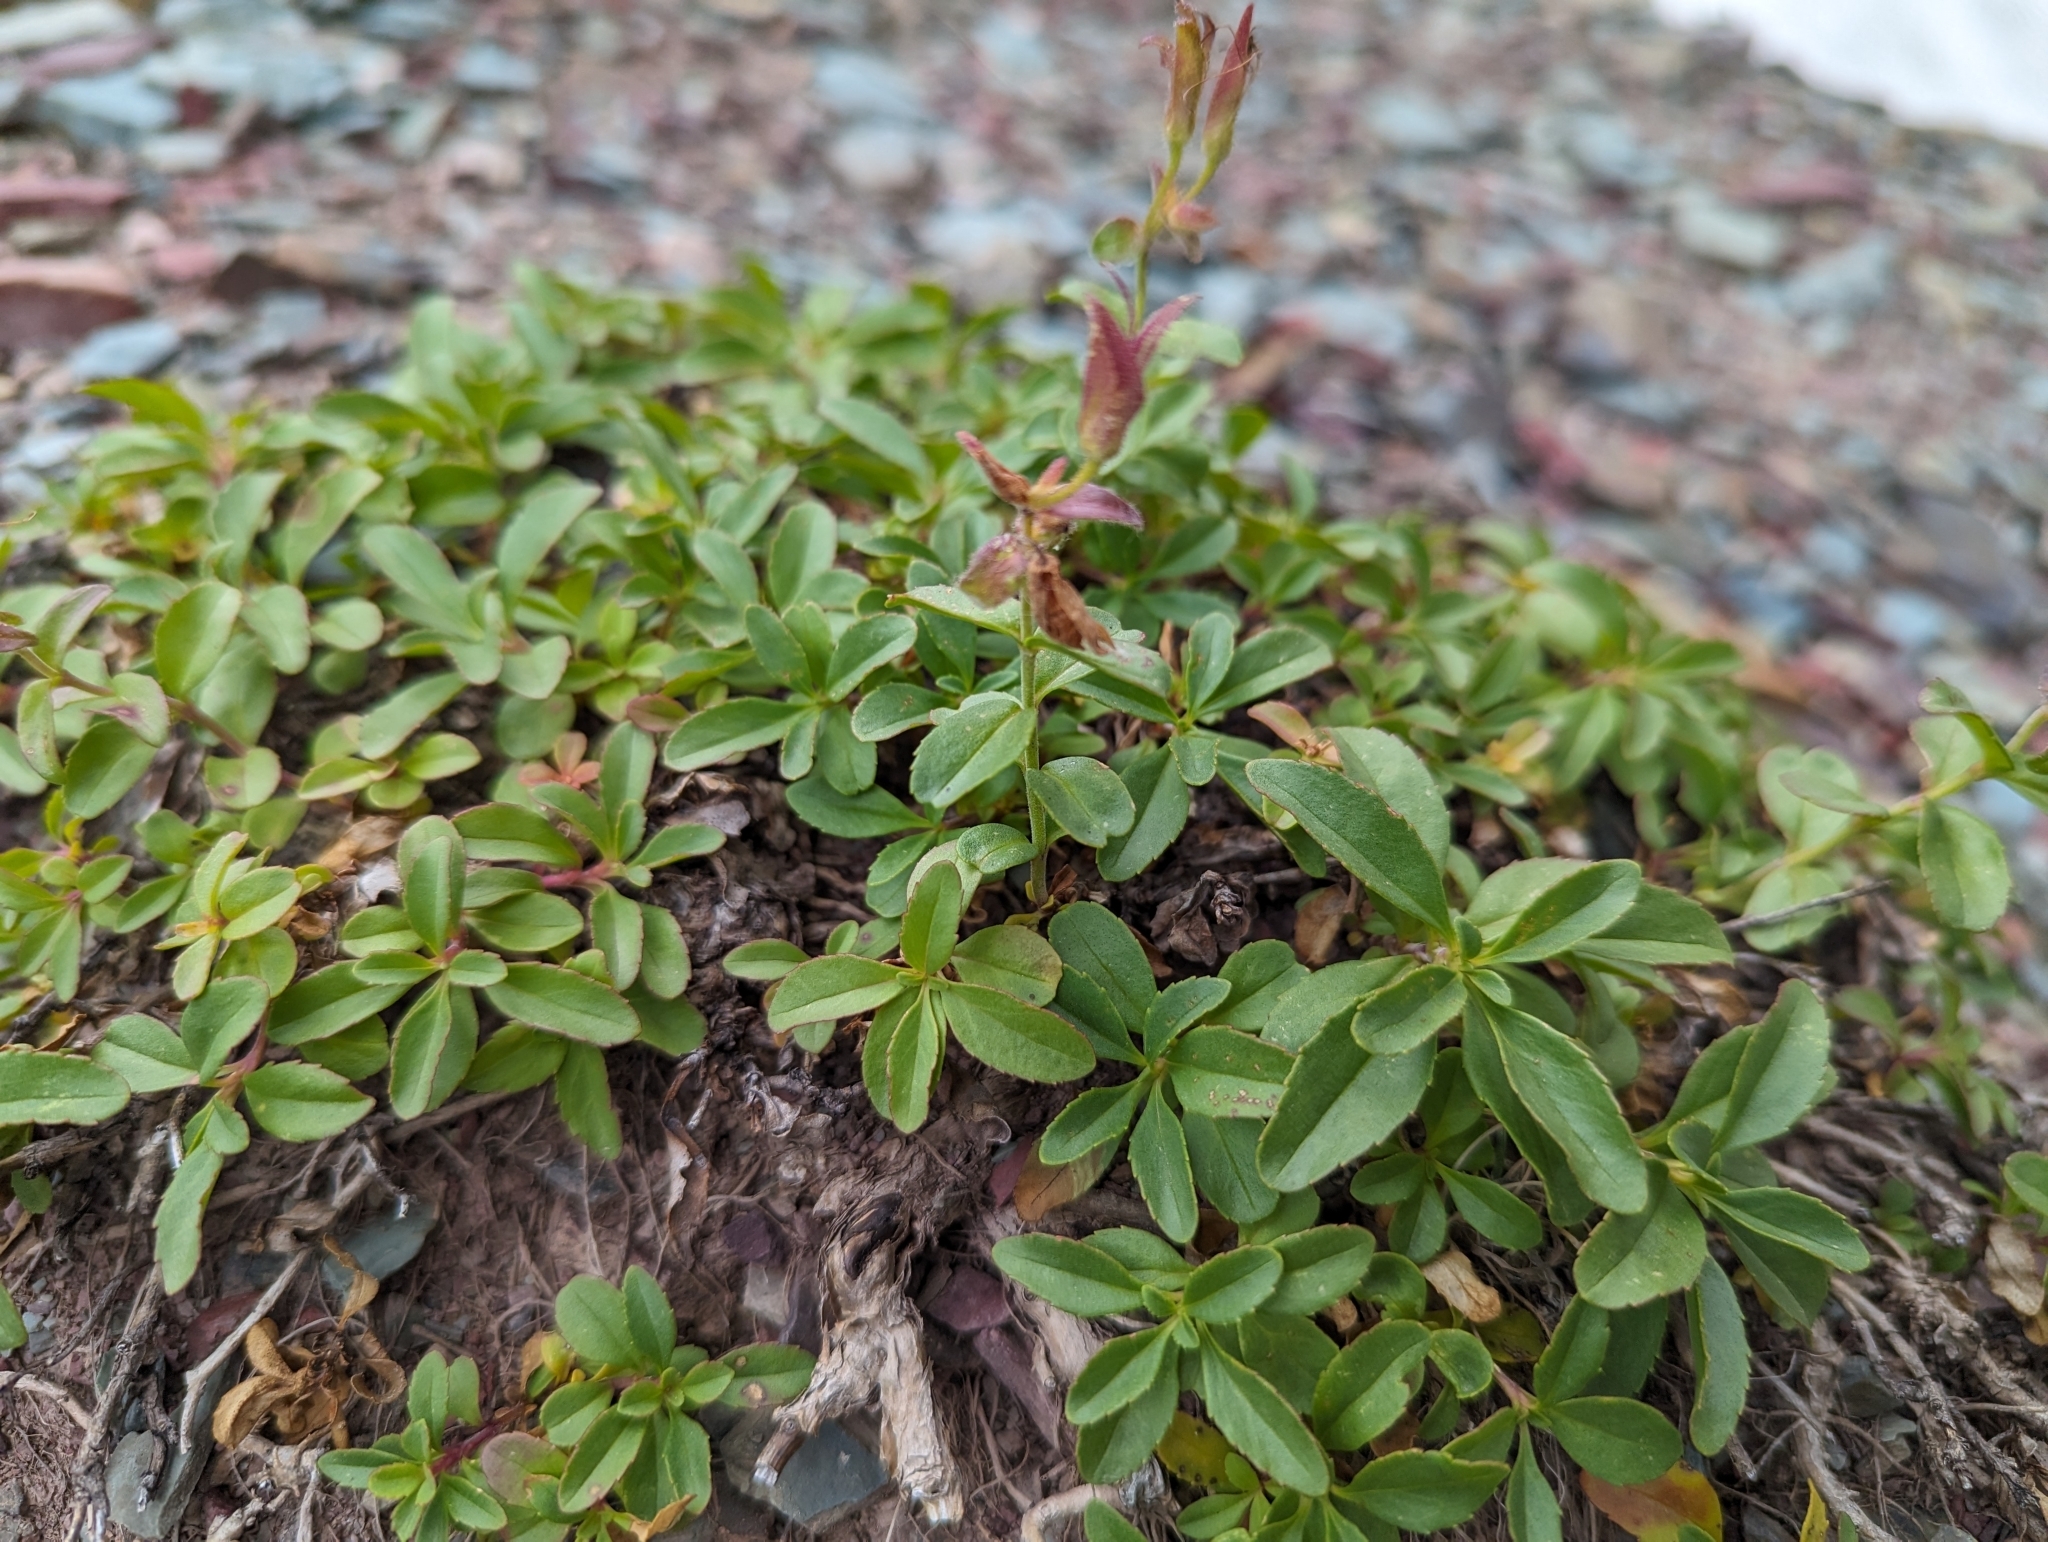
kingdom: Plantae
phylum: Tracheophyta
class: Magnoliopsida
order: Lamiales
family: Plantaginaceae
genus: Penstemon
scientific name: Penstemon ellipticus
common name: Alpine beardtongue
